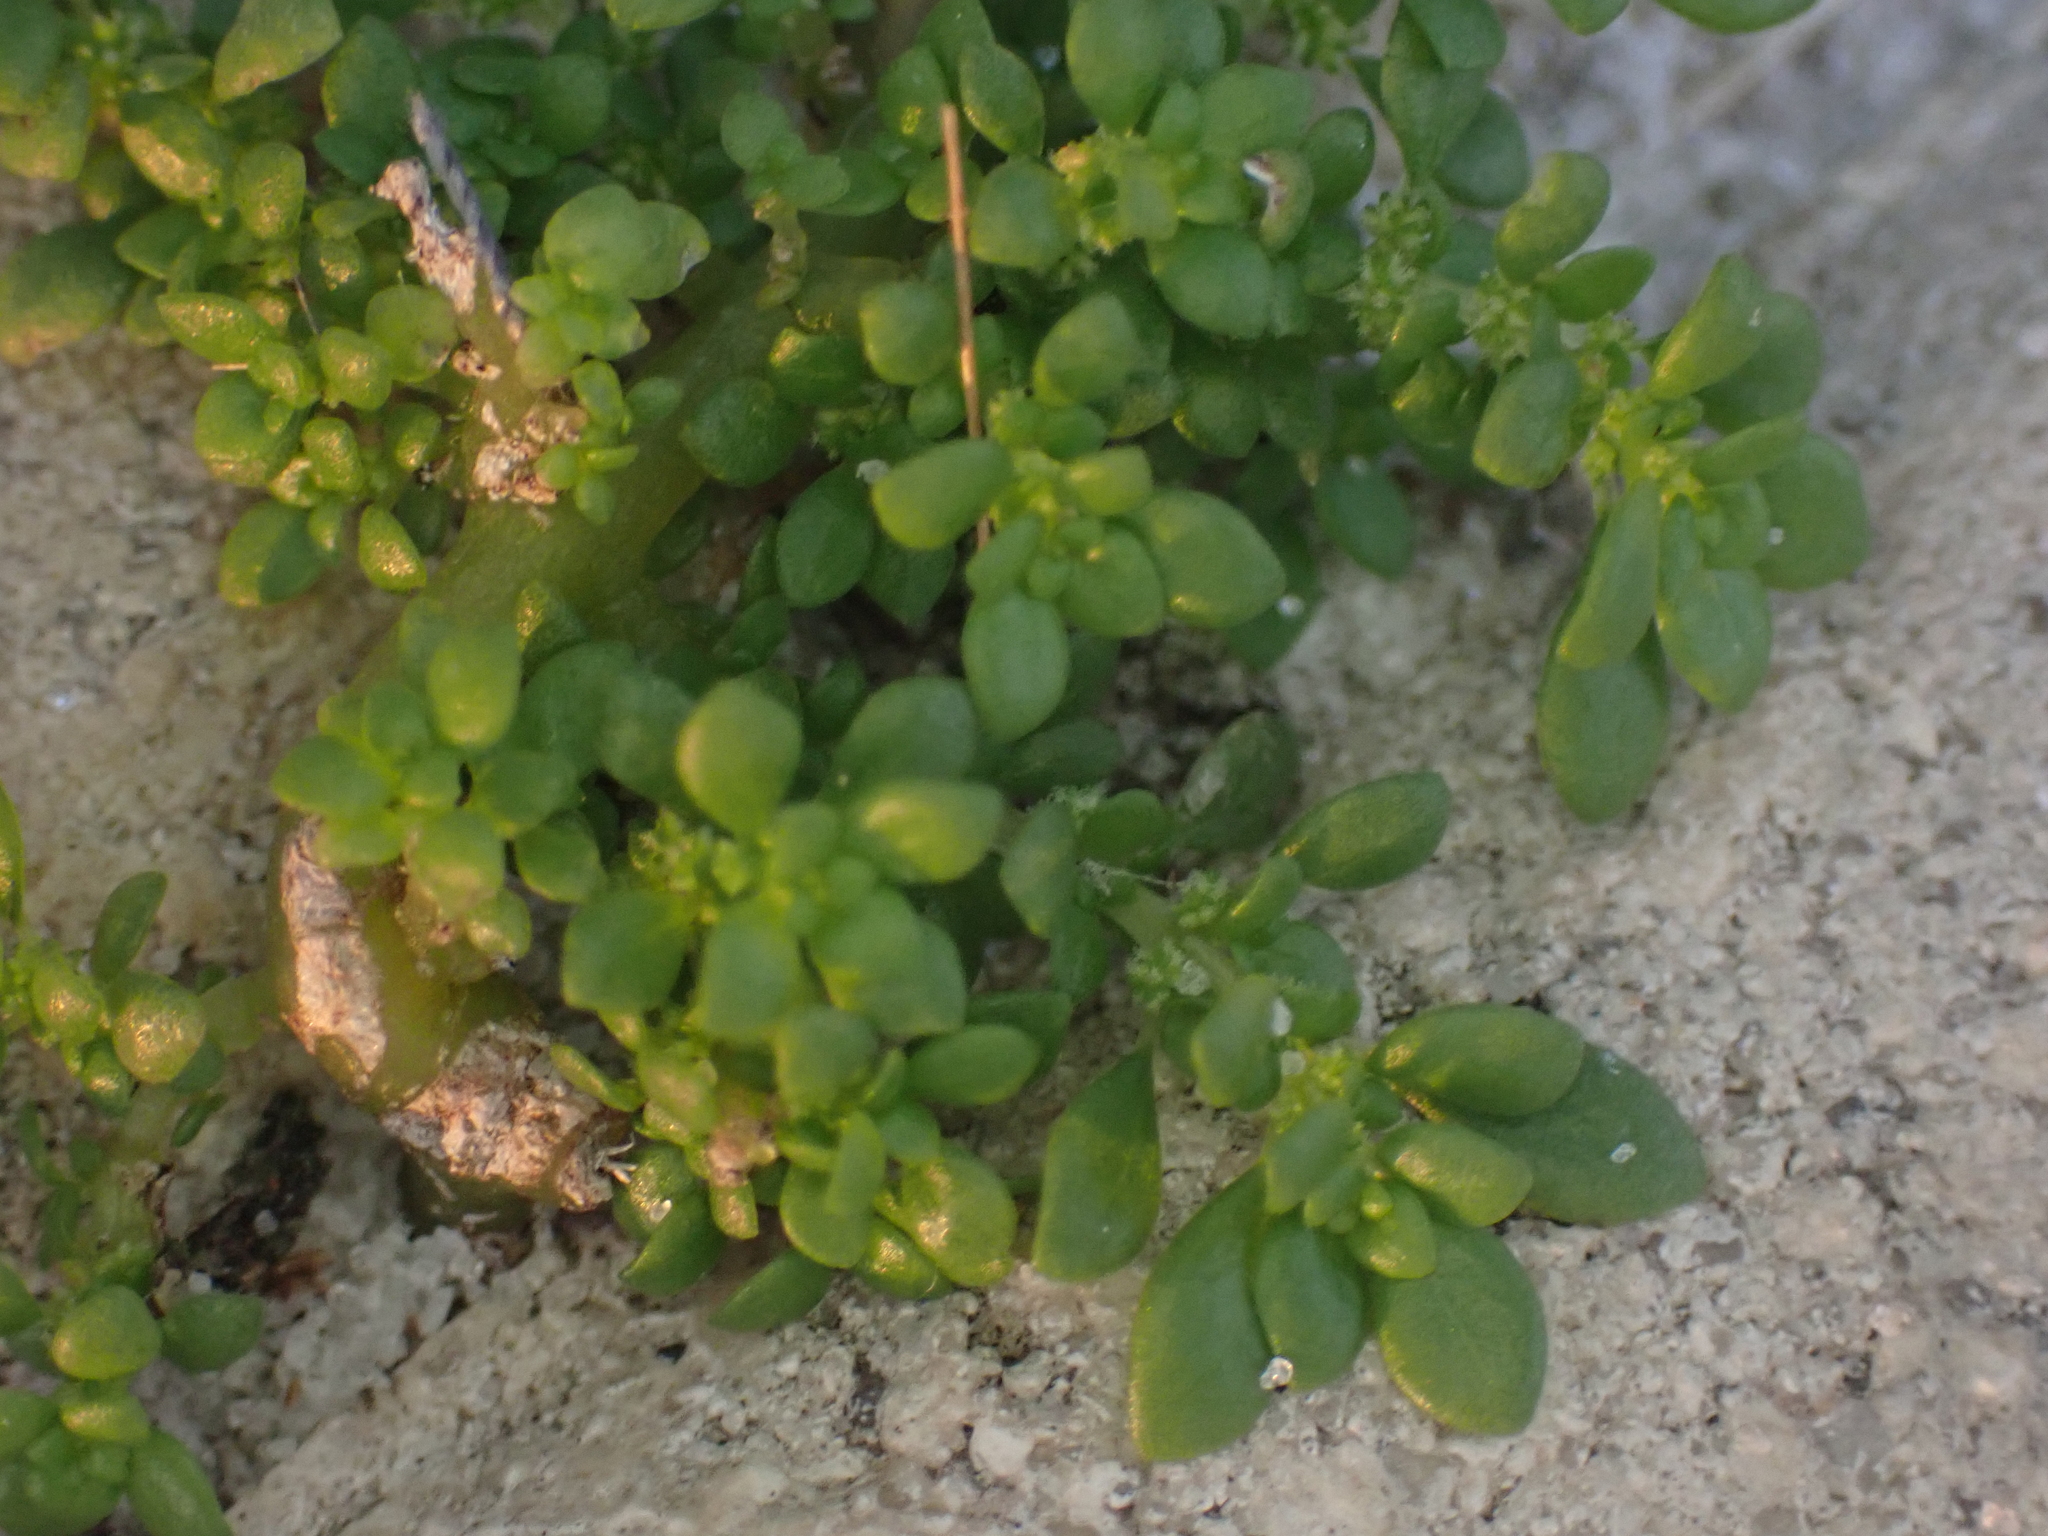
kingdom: Plantae
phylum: Tracheophyta
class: Magnoliopsida
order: Rosales
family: Urticaceae
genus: Pilea
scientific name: Pilea microphylla
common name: Artillery-plant
